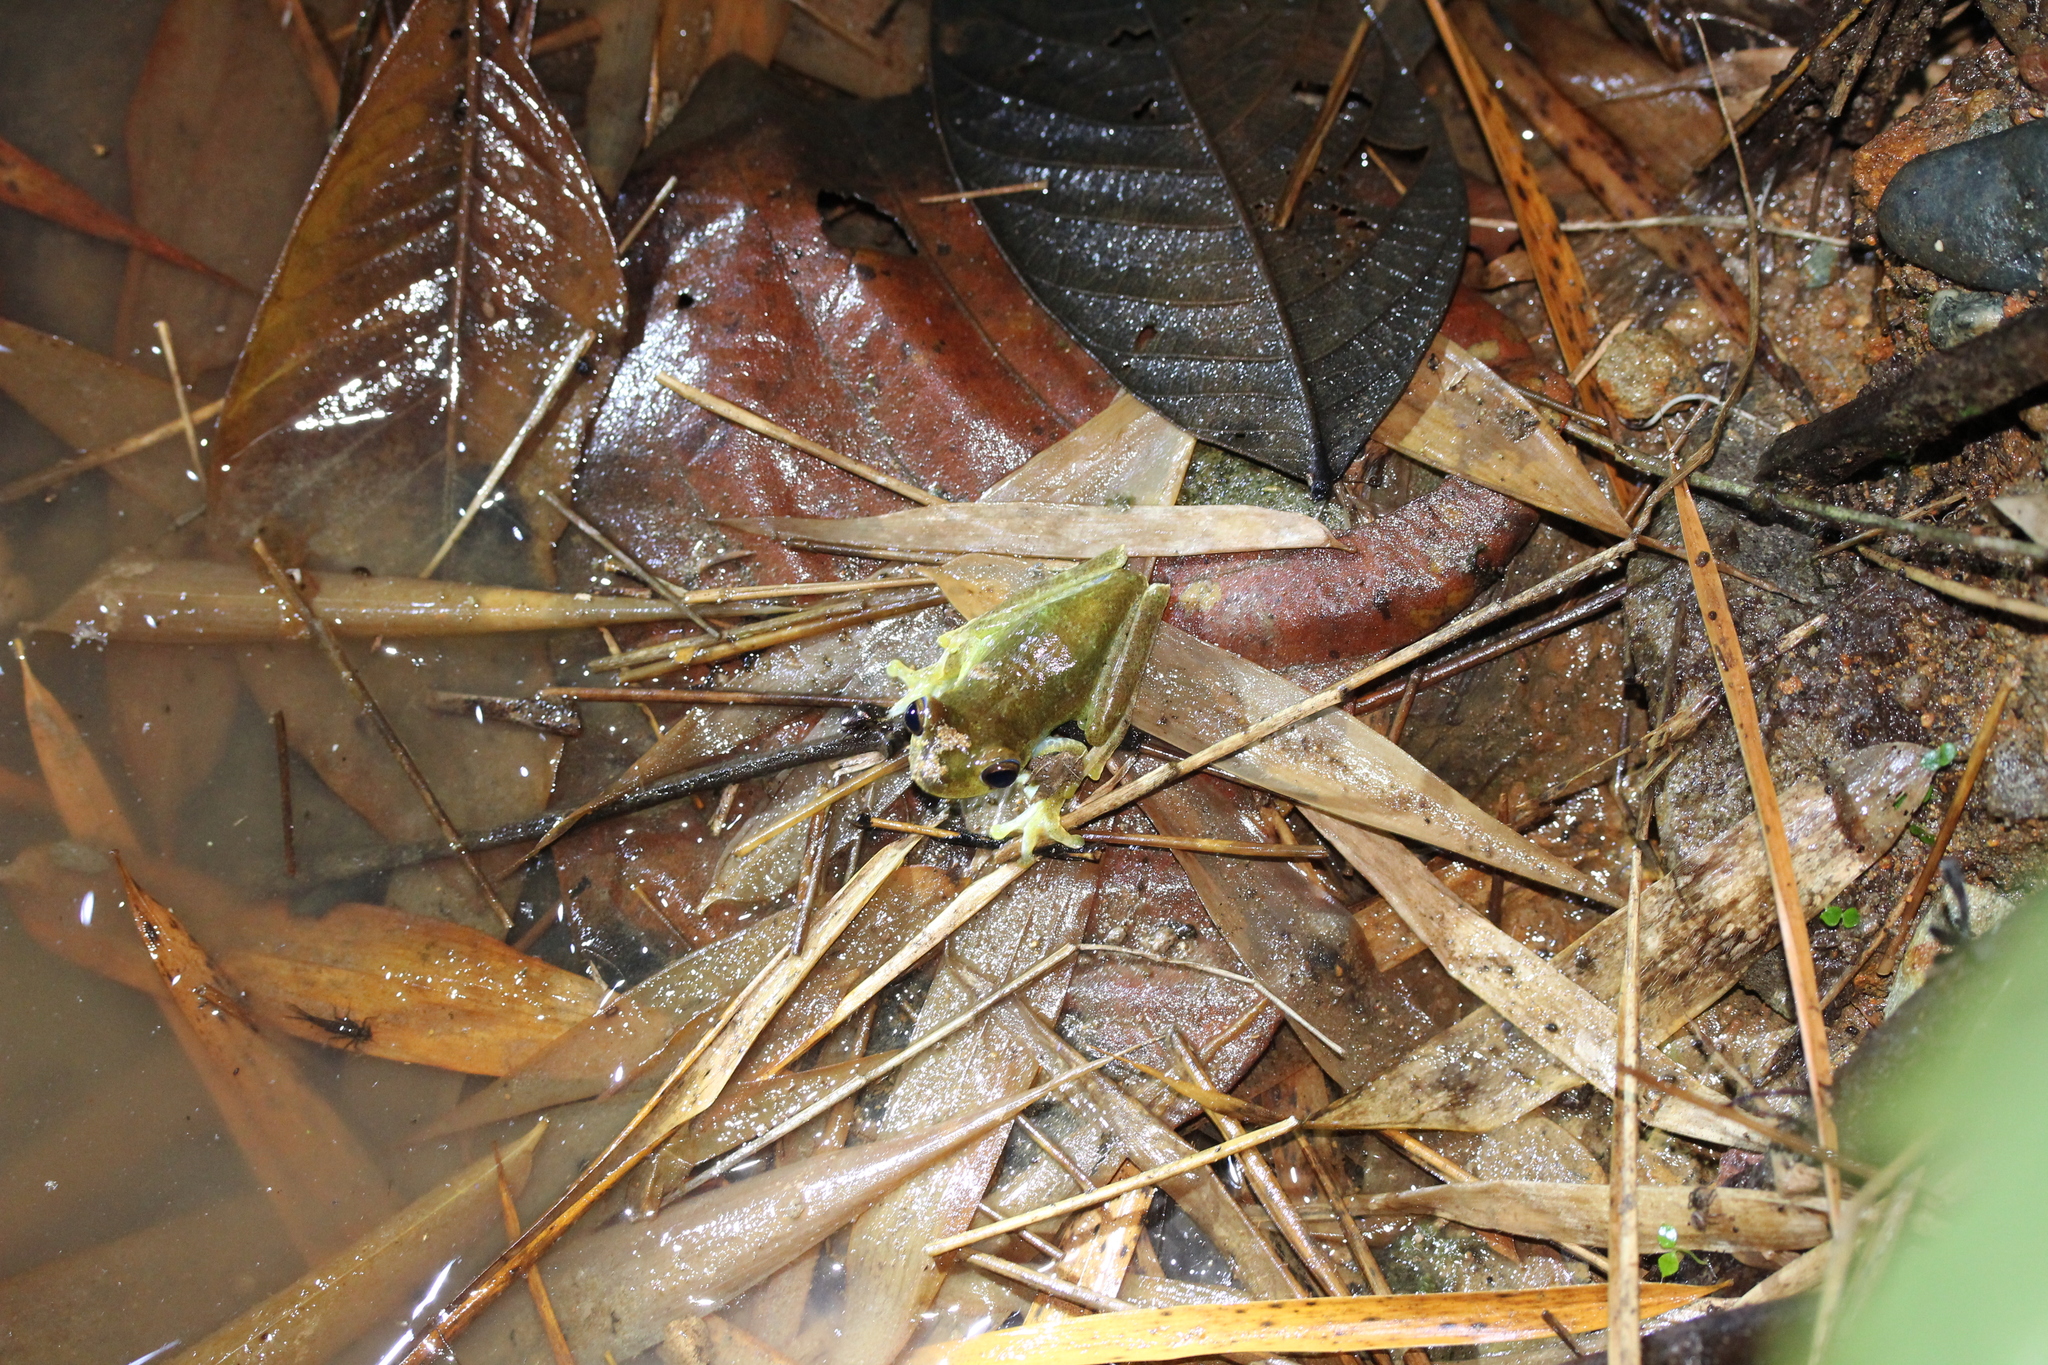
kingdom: Animalia
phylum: Chordata
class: Amphibia
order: Anura
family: Hylidae
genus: Boana
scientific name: Boana pellucens
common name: Palmar treefrog
